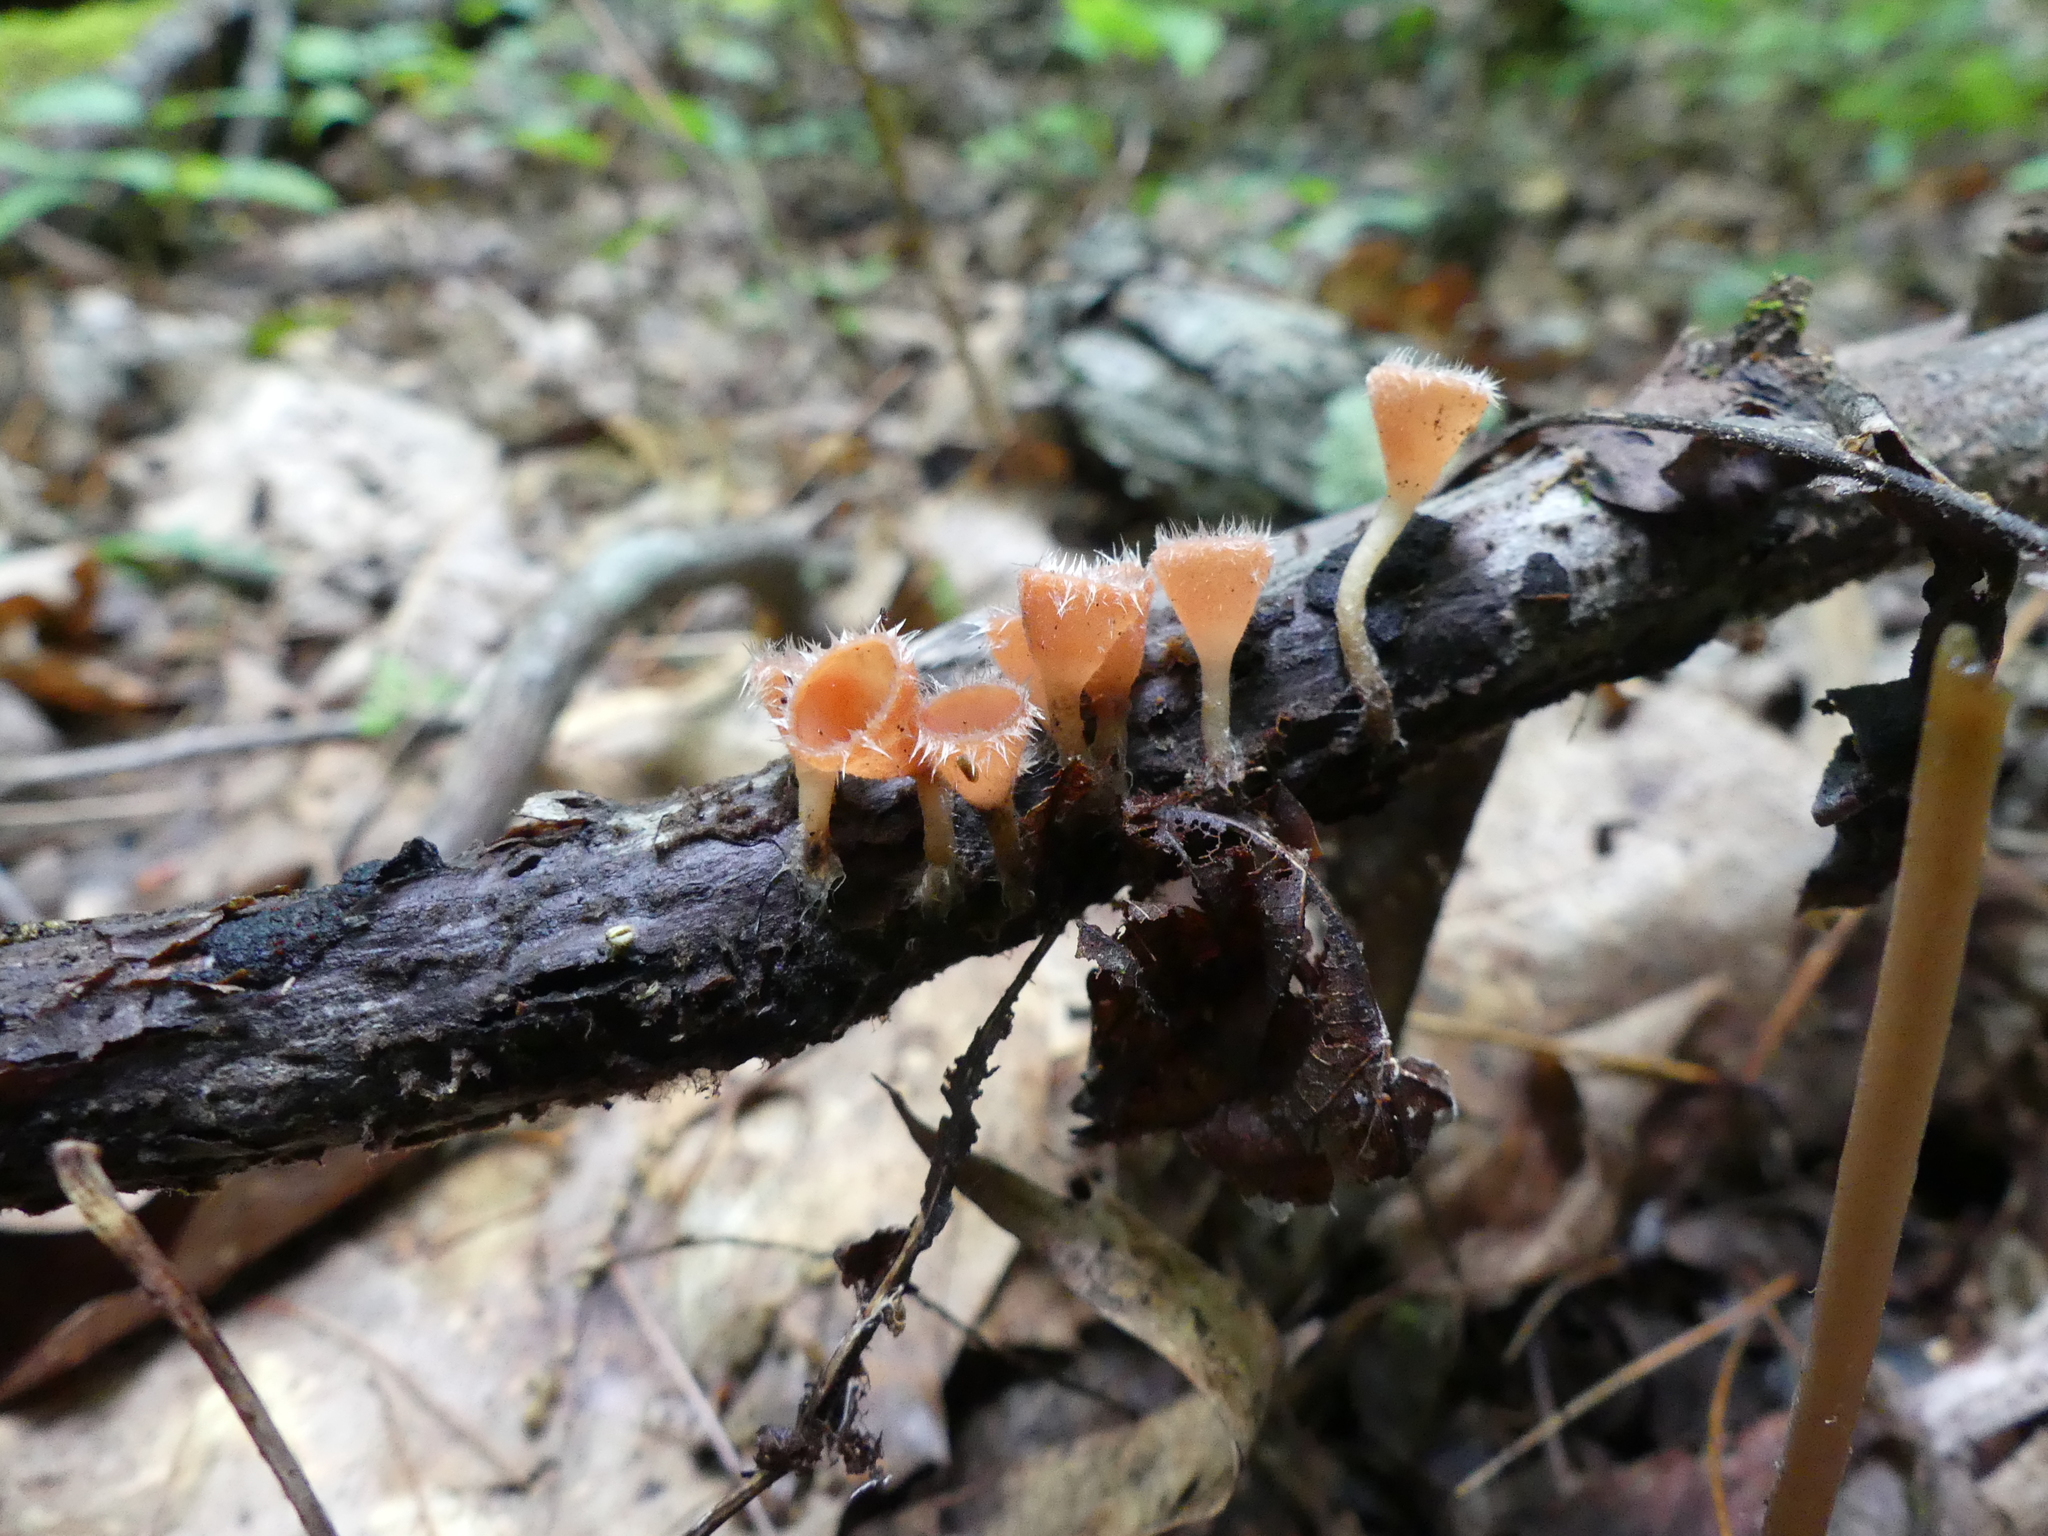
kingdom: Fungi
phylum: Ascomycota
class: Pezizomycetes
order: Pezizales
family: Sarcoscyphaceae
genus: Microstoma
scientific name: Microstoma floccosum
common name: Pink fringed faery cup
